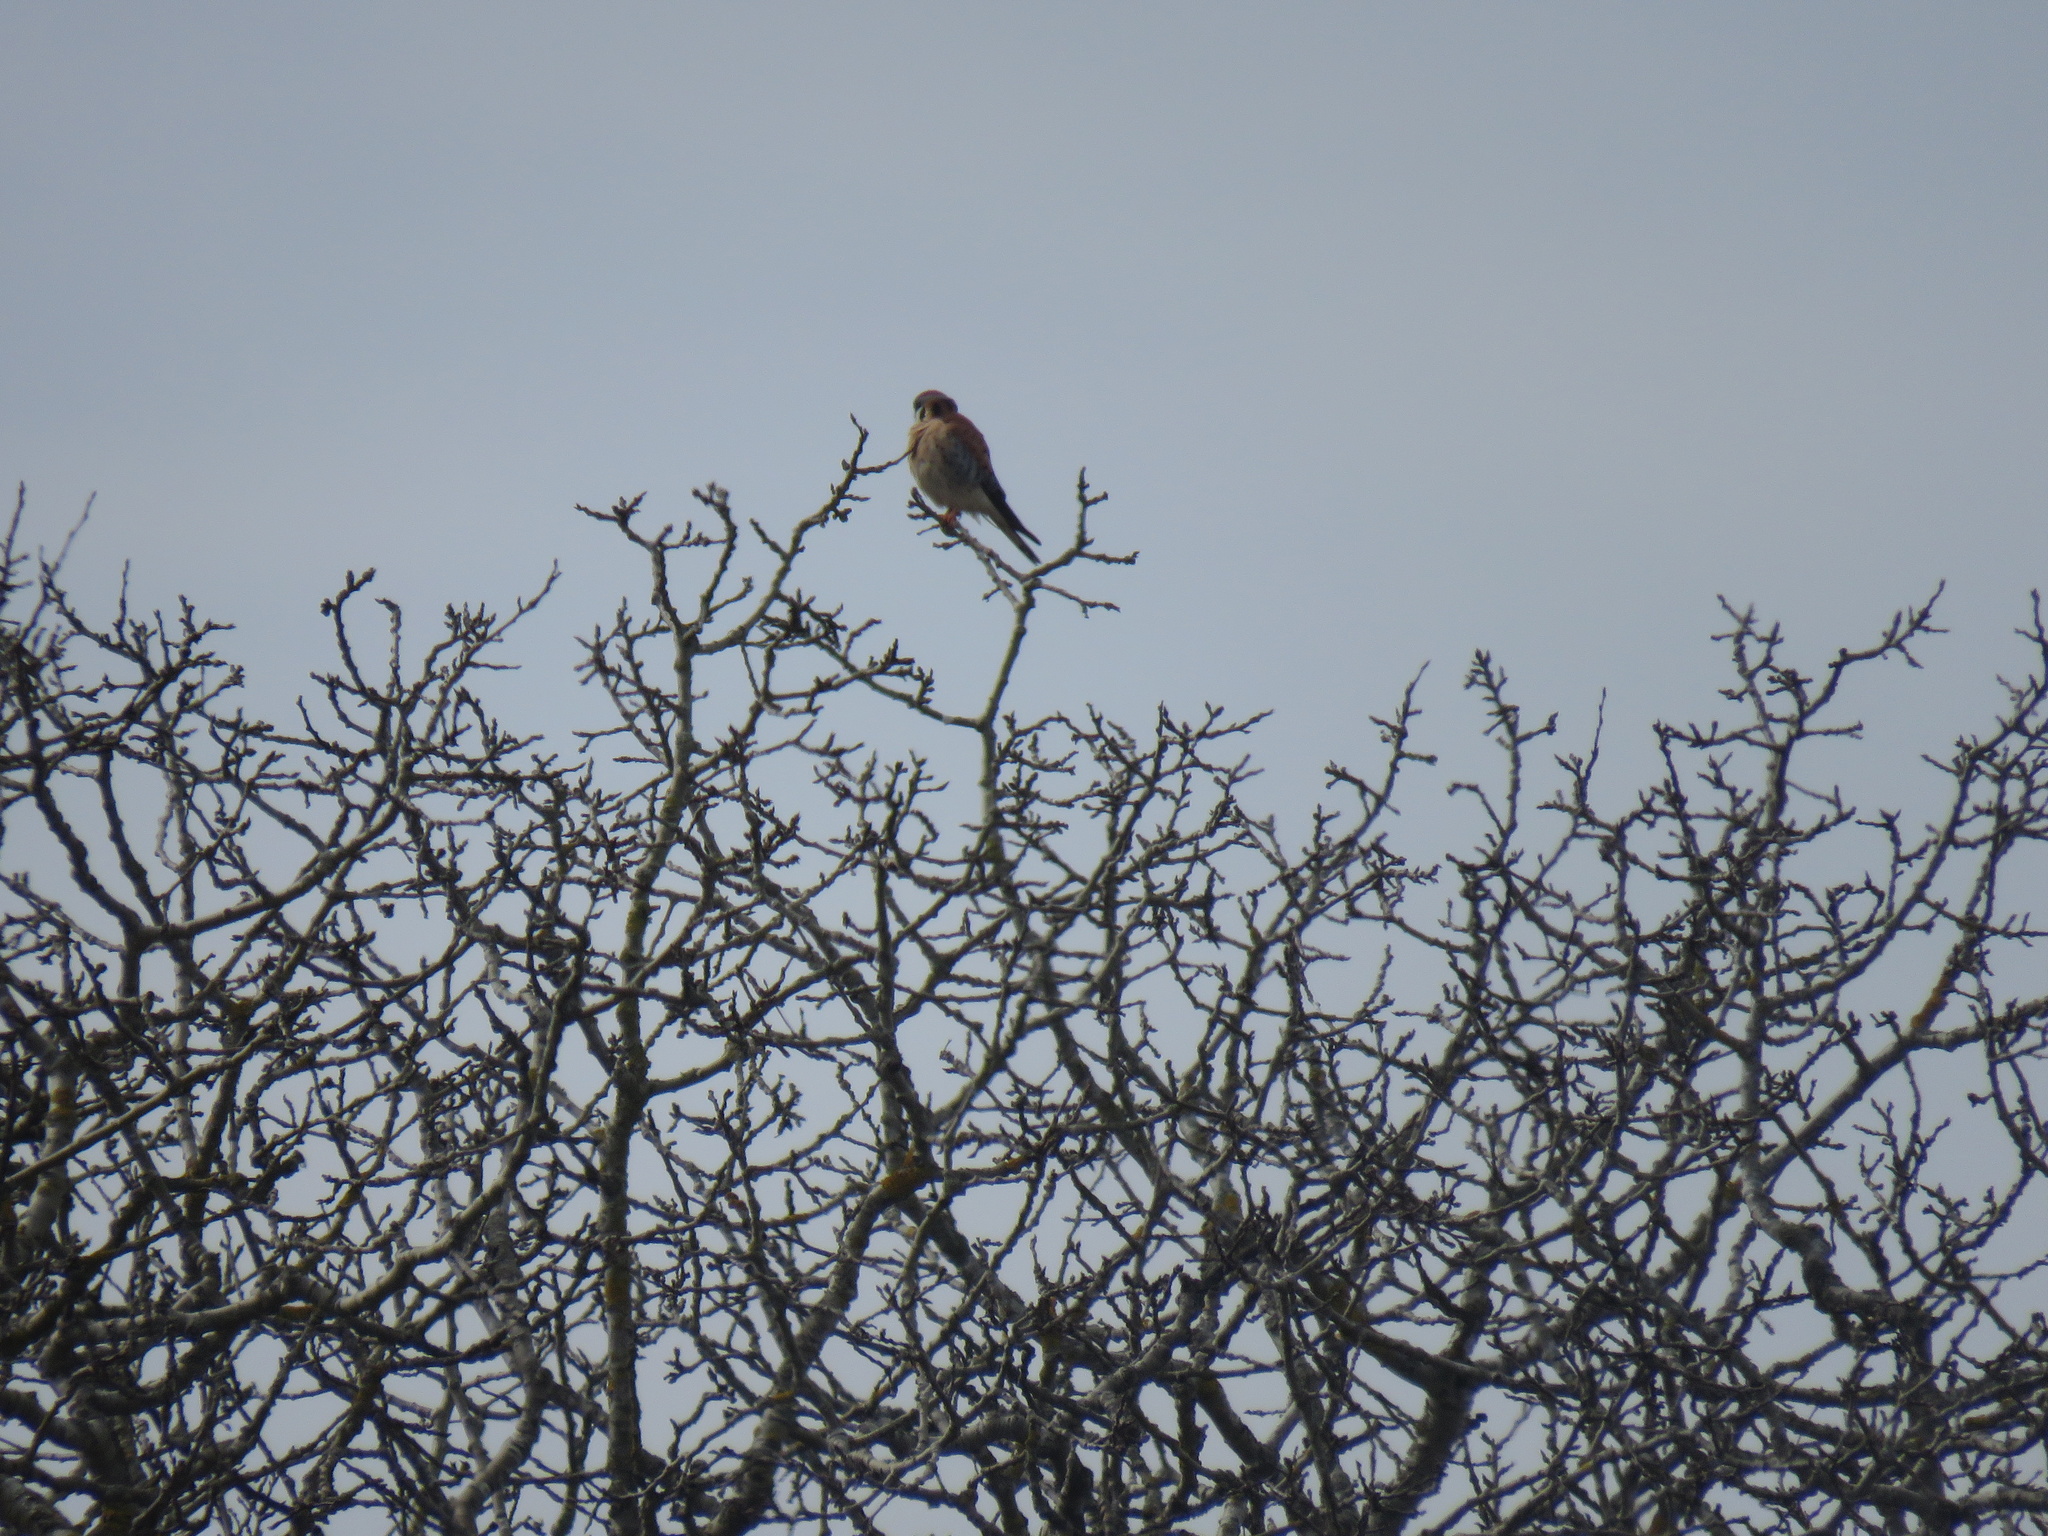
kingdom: Animalia
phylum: Chordata
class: Aves
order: Falconiformes
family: Falconidae
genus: Falco
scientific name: Falco sparverius
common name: American kestrel
